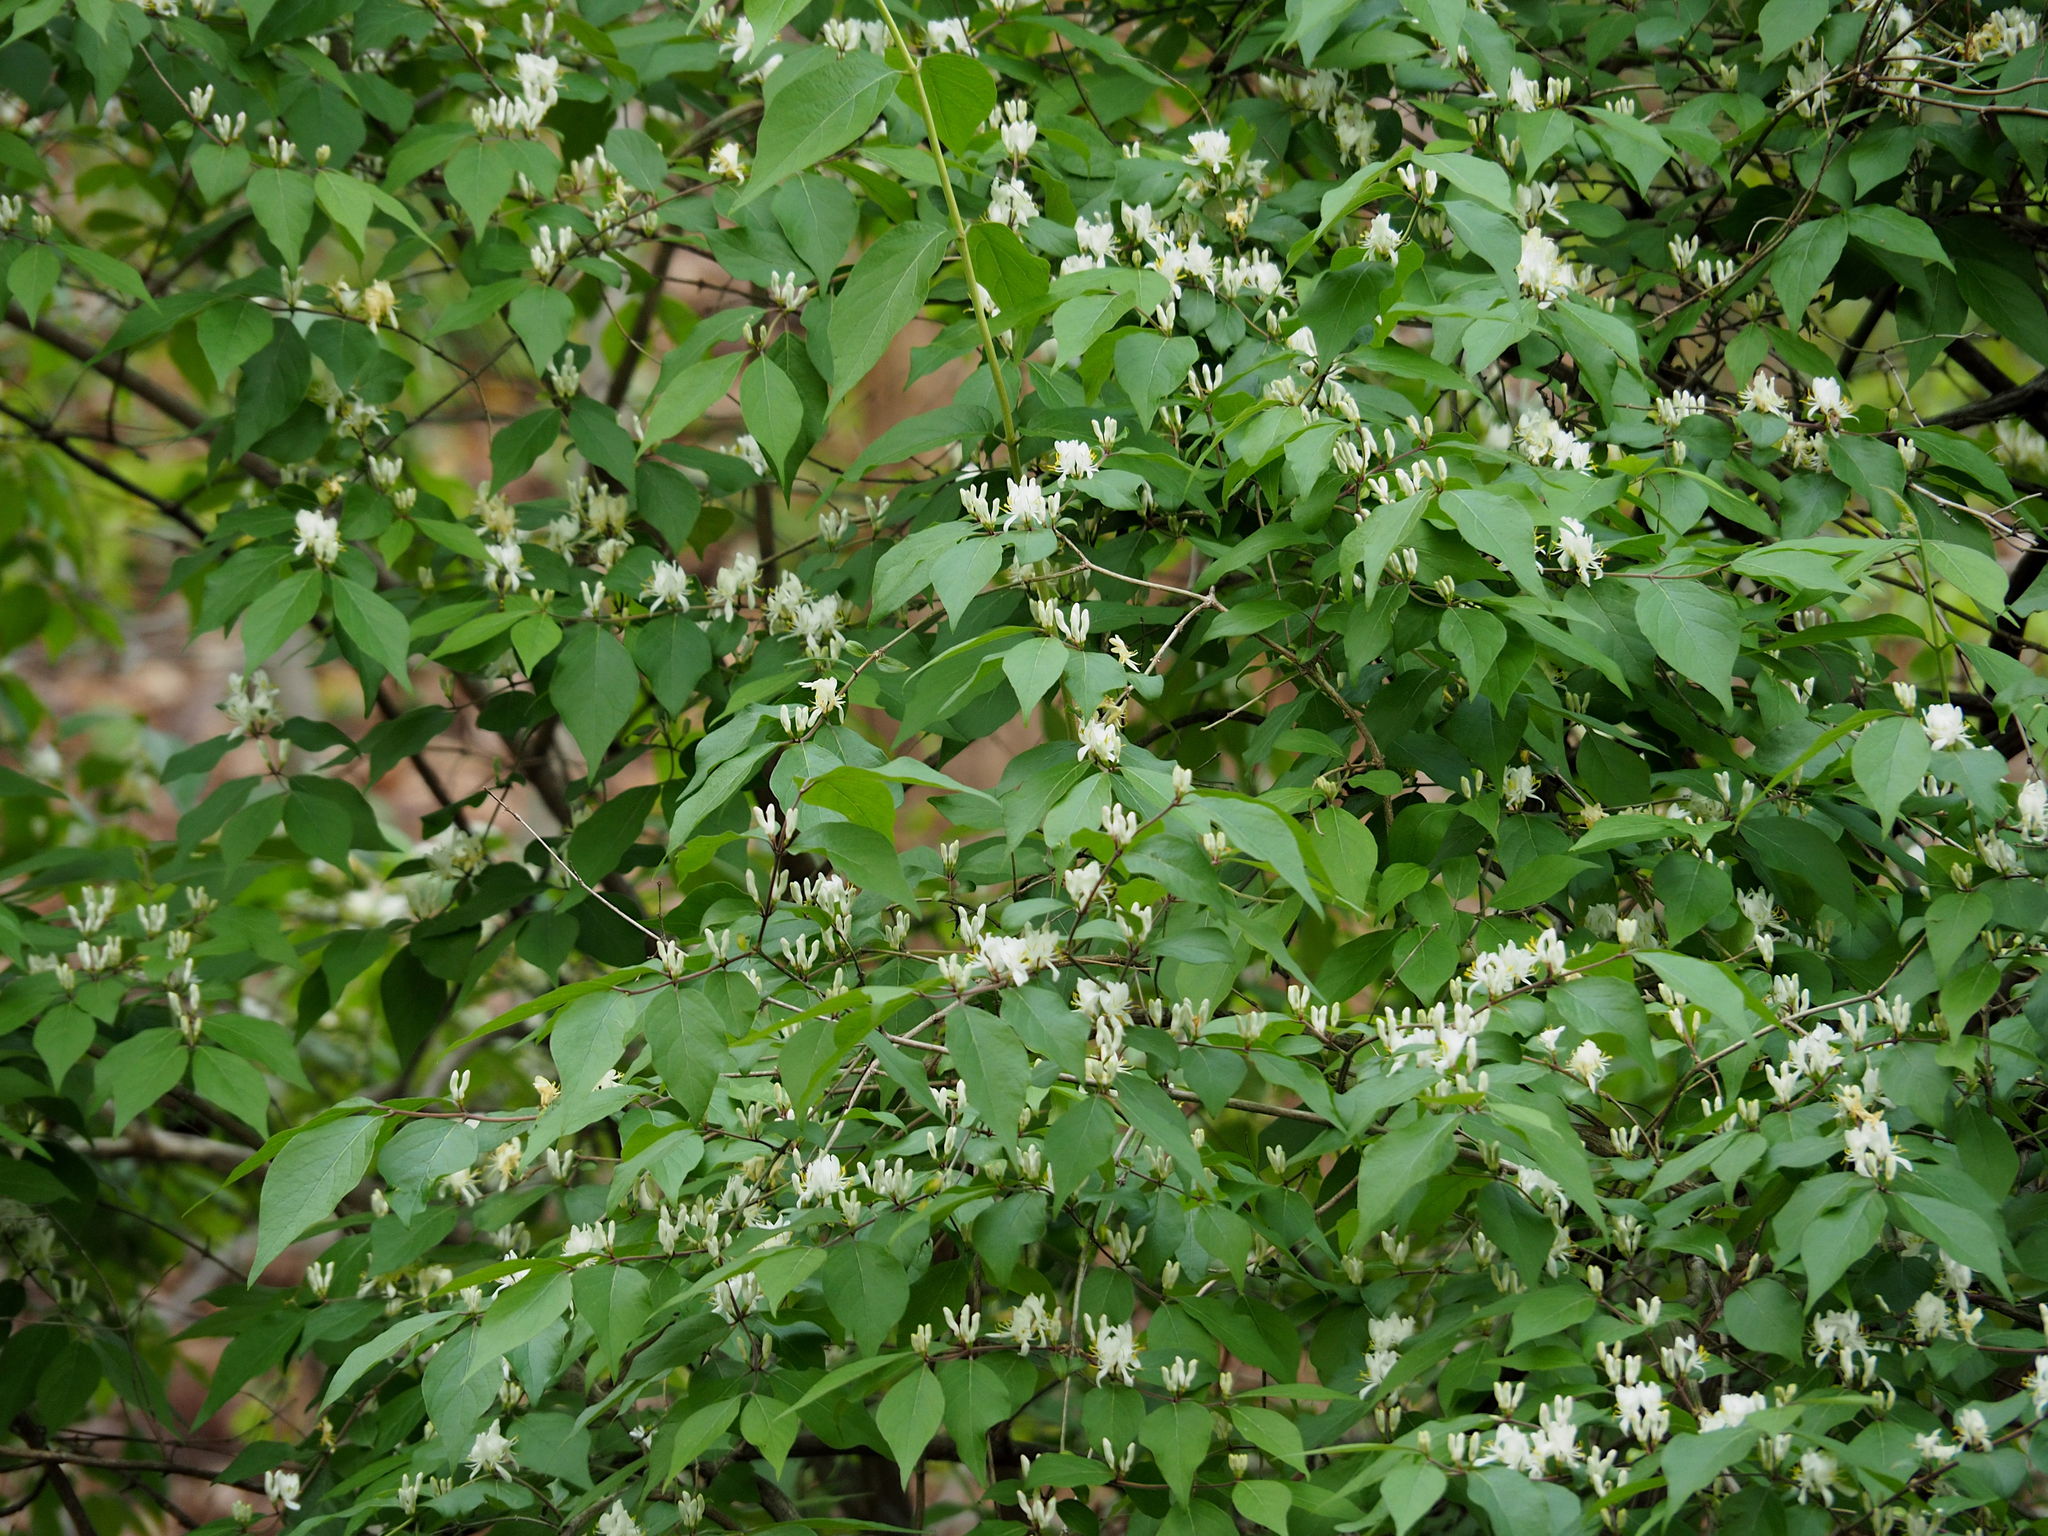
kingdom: Plantae
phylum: Tracheophyta
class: Magnoliopsida
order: Dipsacales
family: Caprifoliaceae
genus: Lonicera
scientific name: Lonicera maackii
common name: Amur honeysuckle
